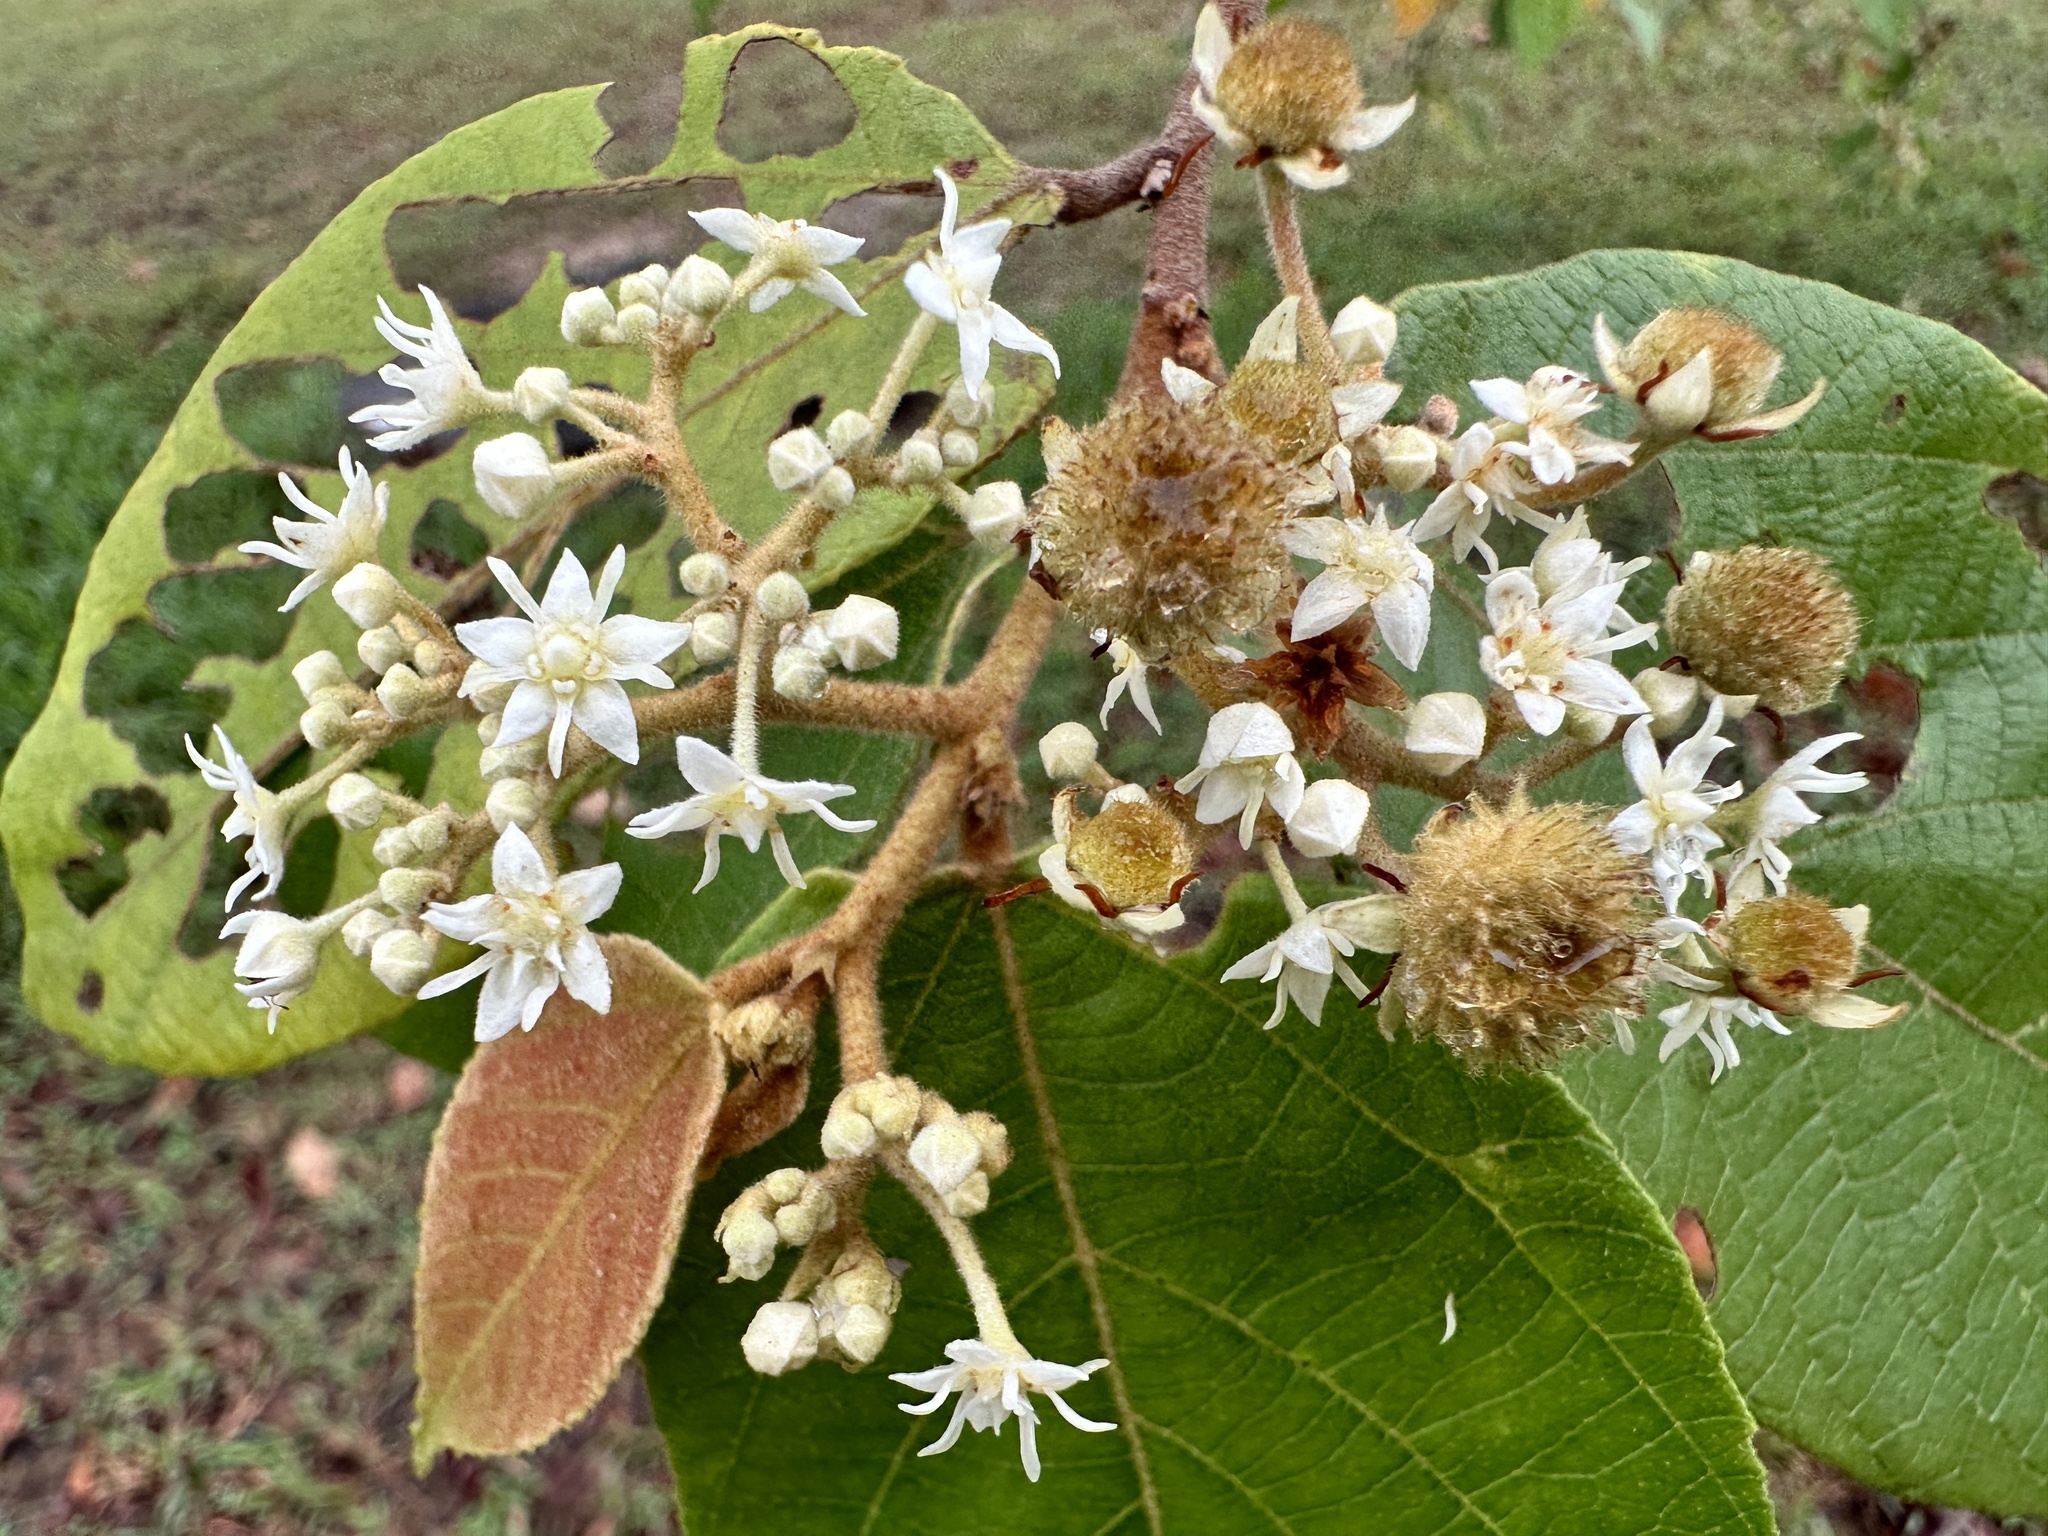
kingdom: Plantae
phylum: Tracheophyta
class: Magnoliopsida
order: Malvales
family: Malvaceae
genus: Commersonia
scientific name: Commersonia bartramia
